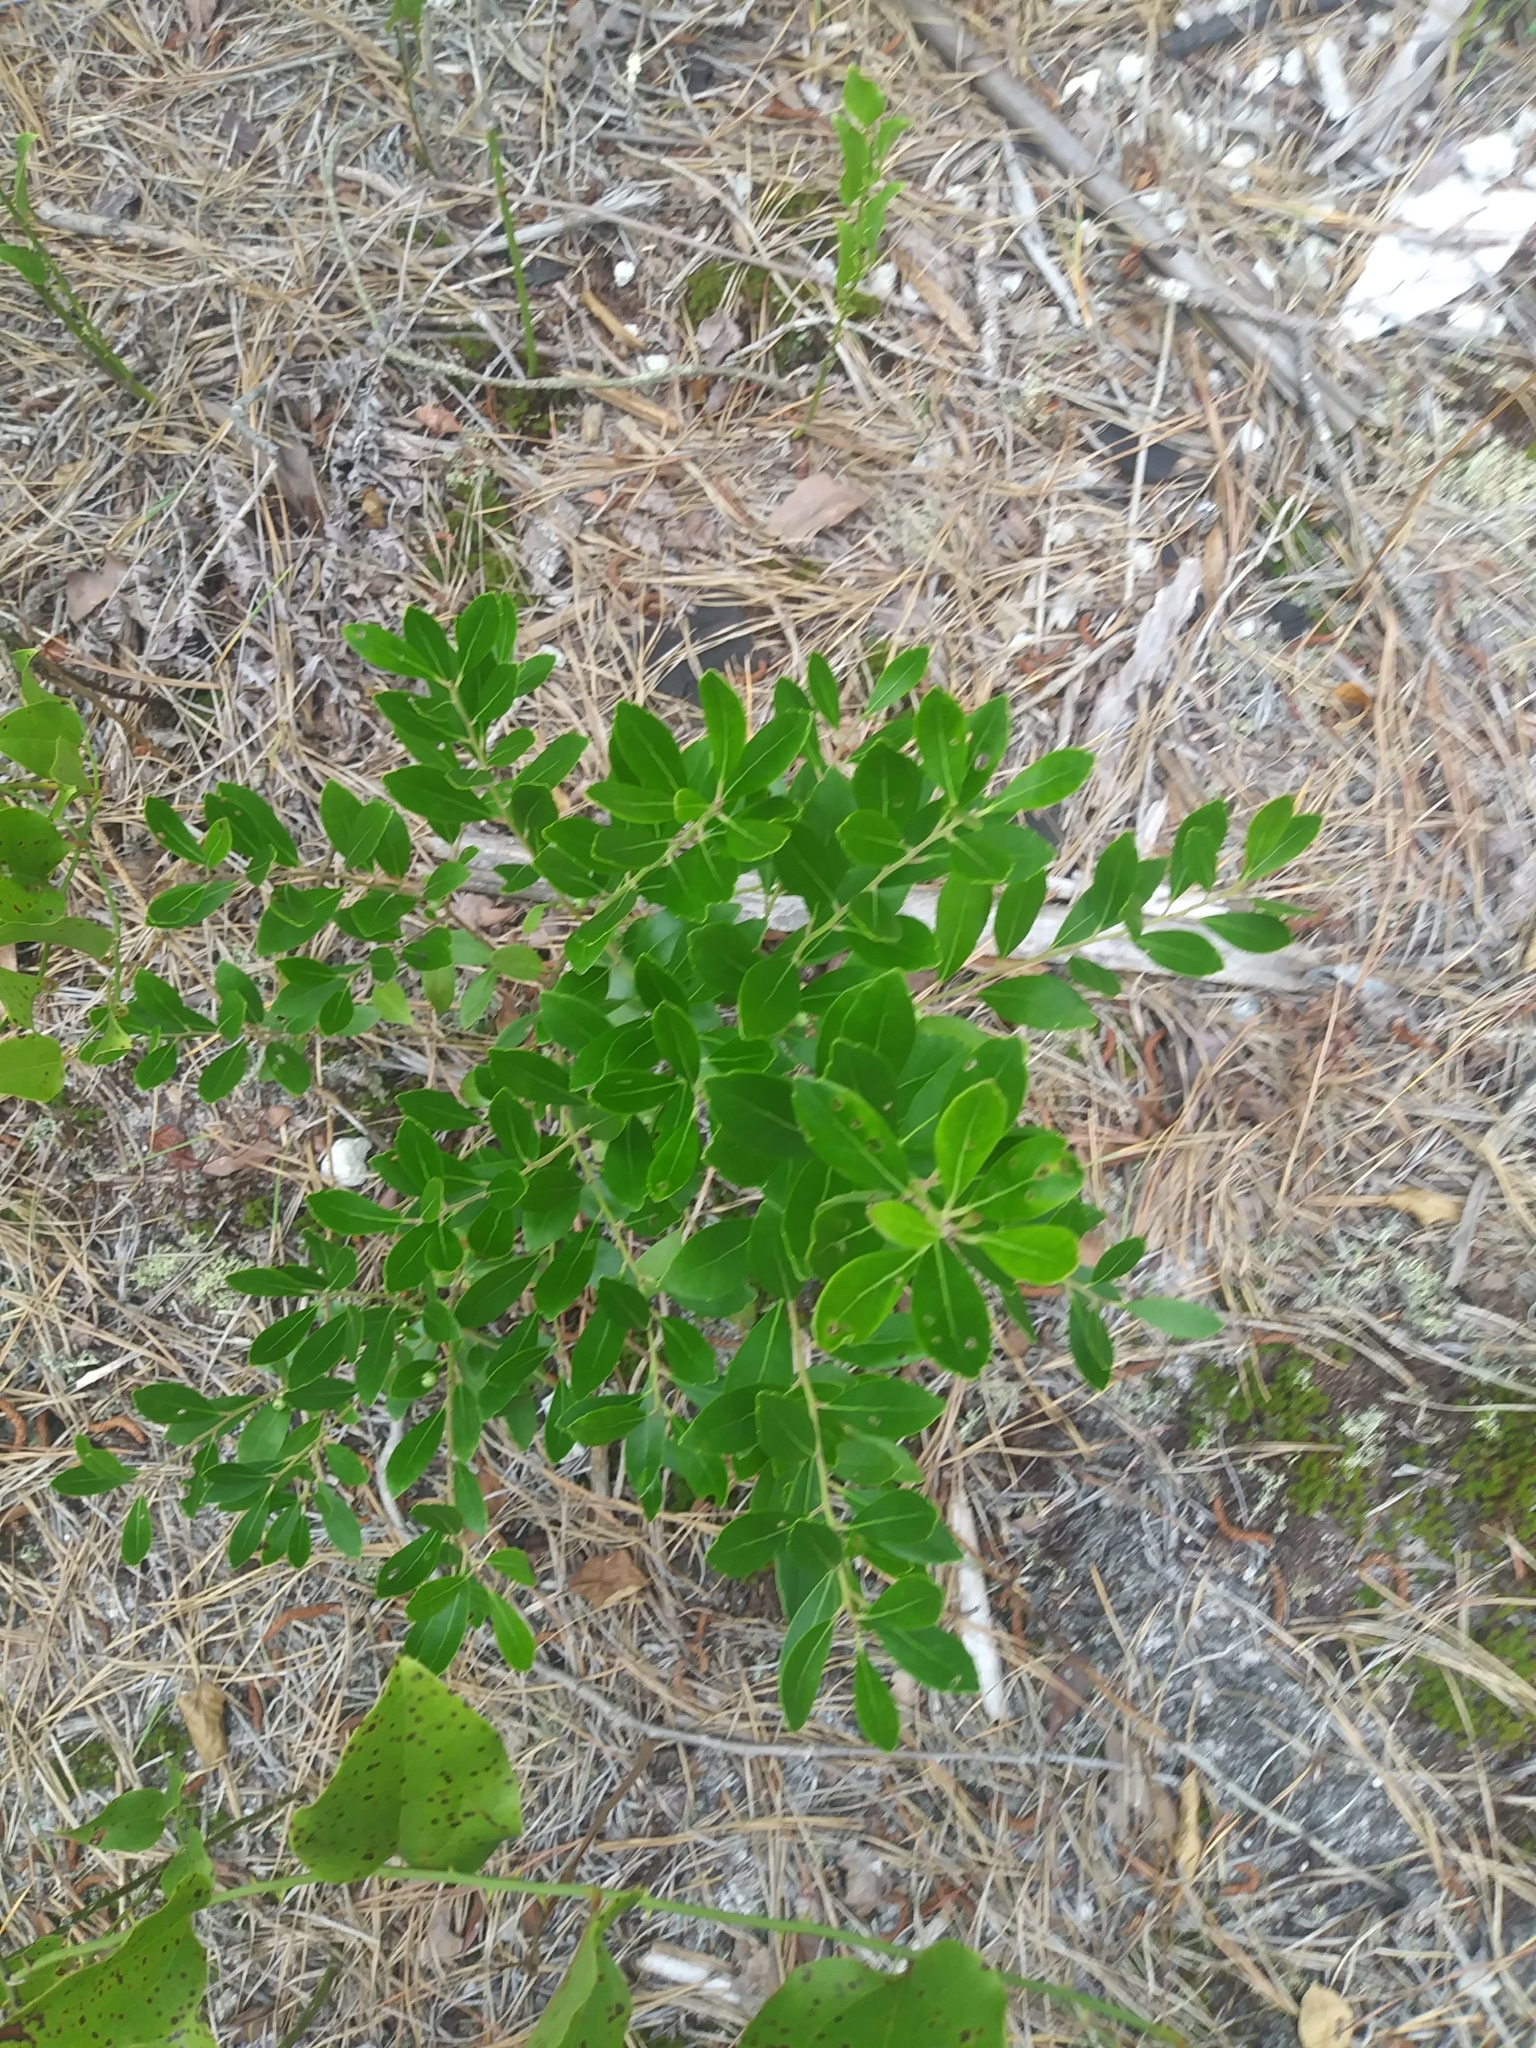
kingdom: Plantae
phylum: Tracheophyta
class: Magnoliopsida
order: Aquifoliales
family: Aquifoliaceae
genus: Ilex
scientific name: Ilex glabra
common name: Bitter gallberry
